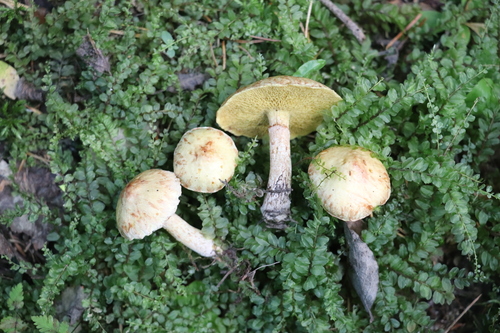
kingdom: Fungi
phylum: Basidiomycota
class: Agaricomycetes
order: Boletales
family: Suillaceae
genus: Suillus
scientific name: Suillus americanus
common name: Chicken fat mushroom
